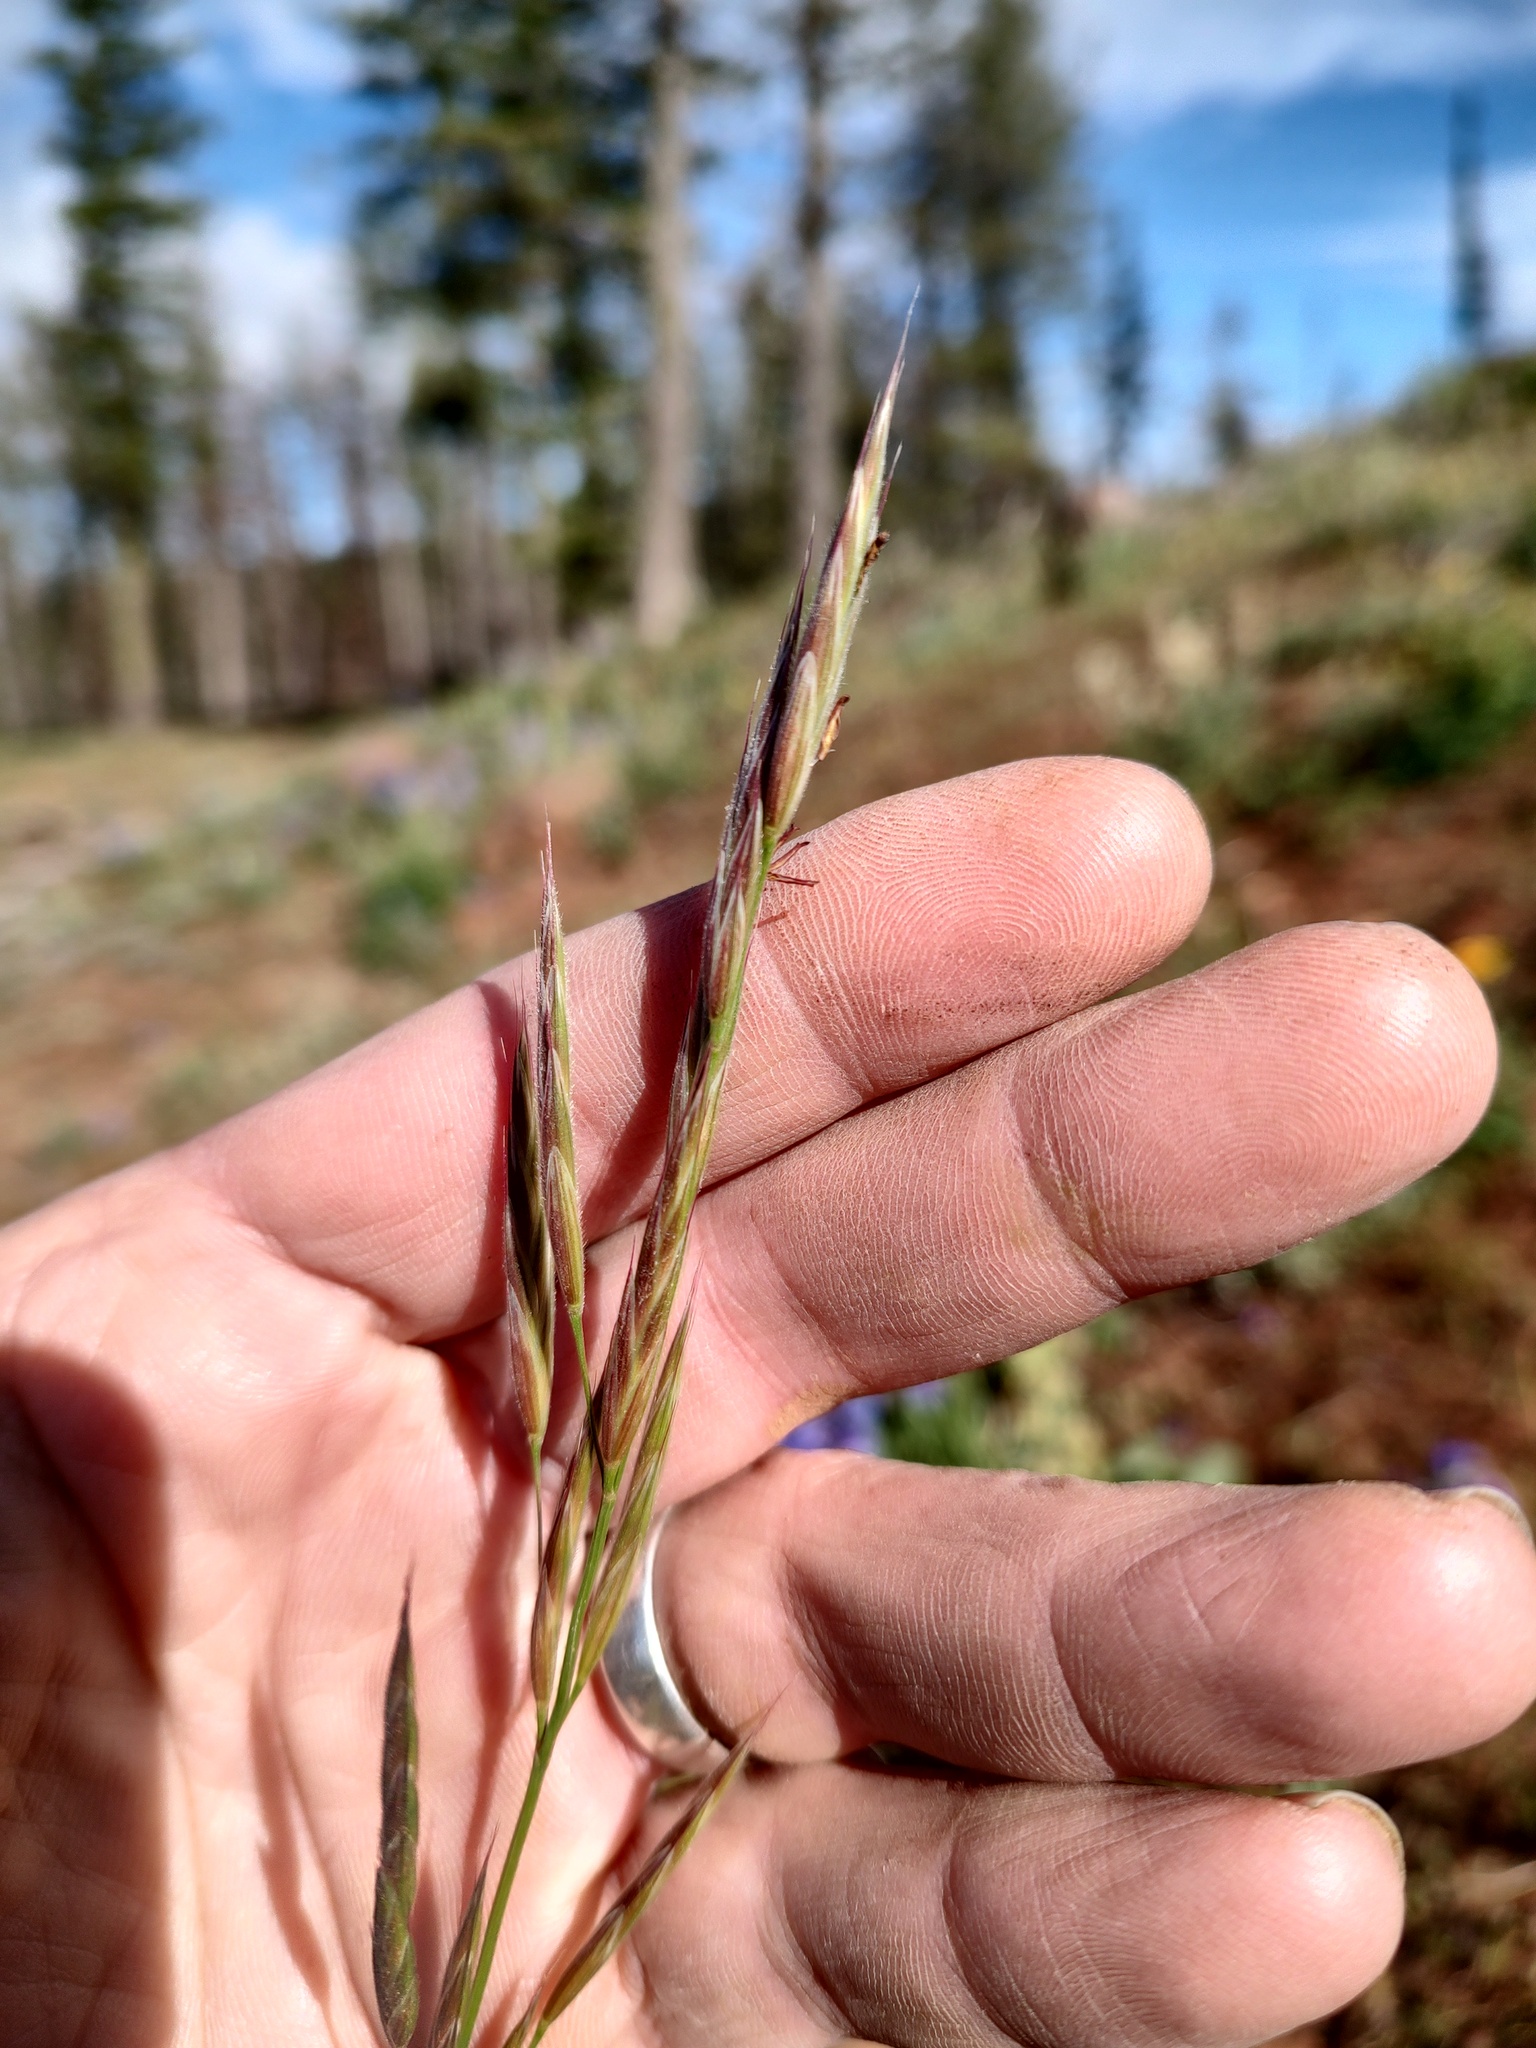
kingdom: Plantae
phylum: Tracheophyta
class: Liliopsida
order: Poales
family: Poaceae
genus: Bromus
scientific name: Bromus marginatus
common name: Western brome
